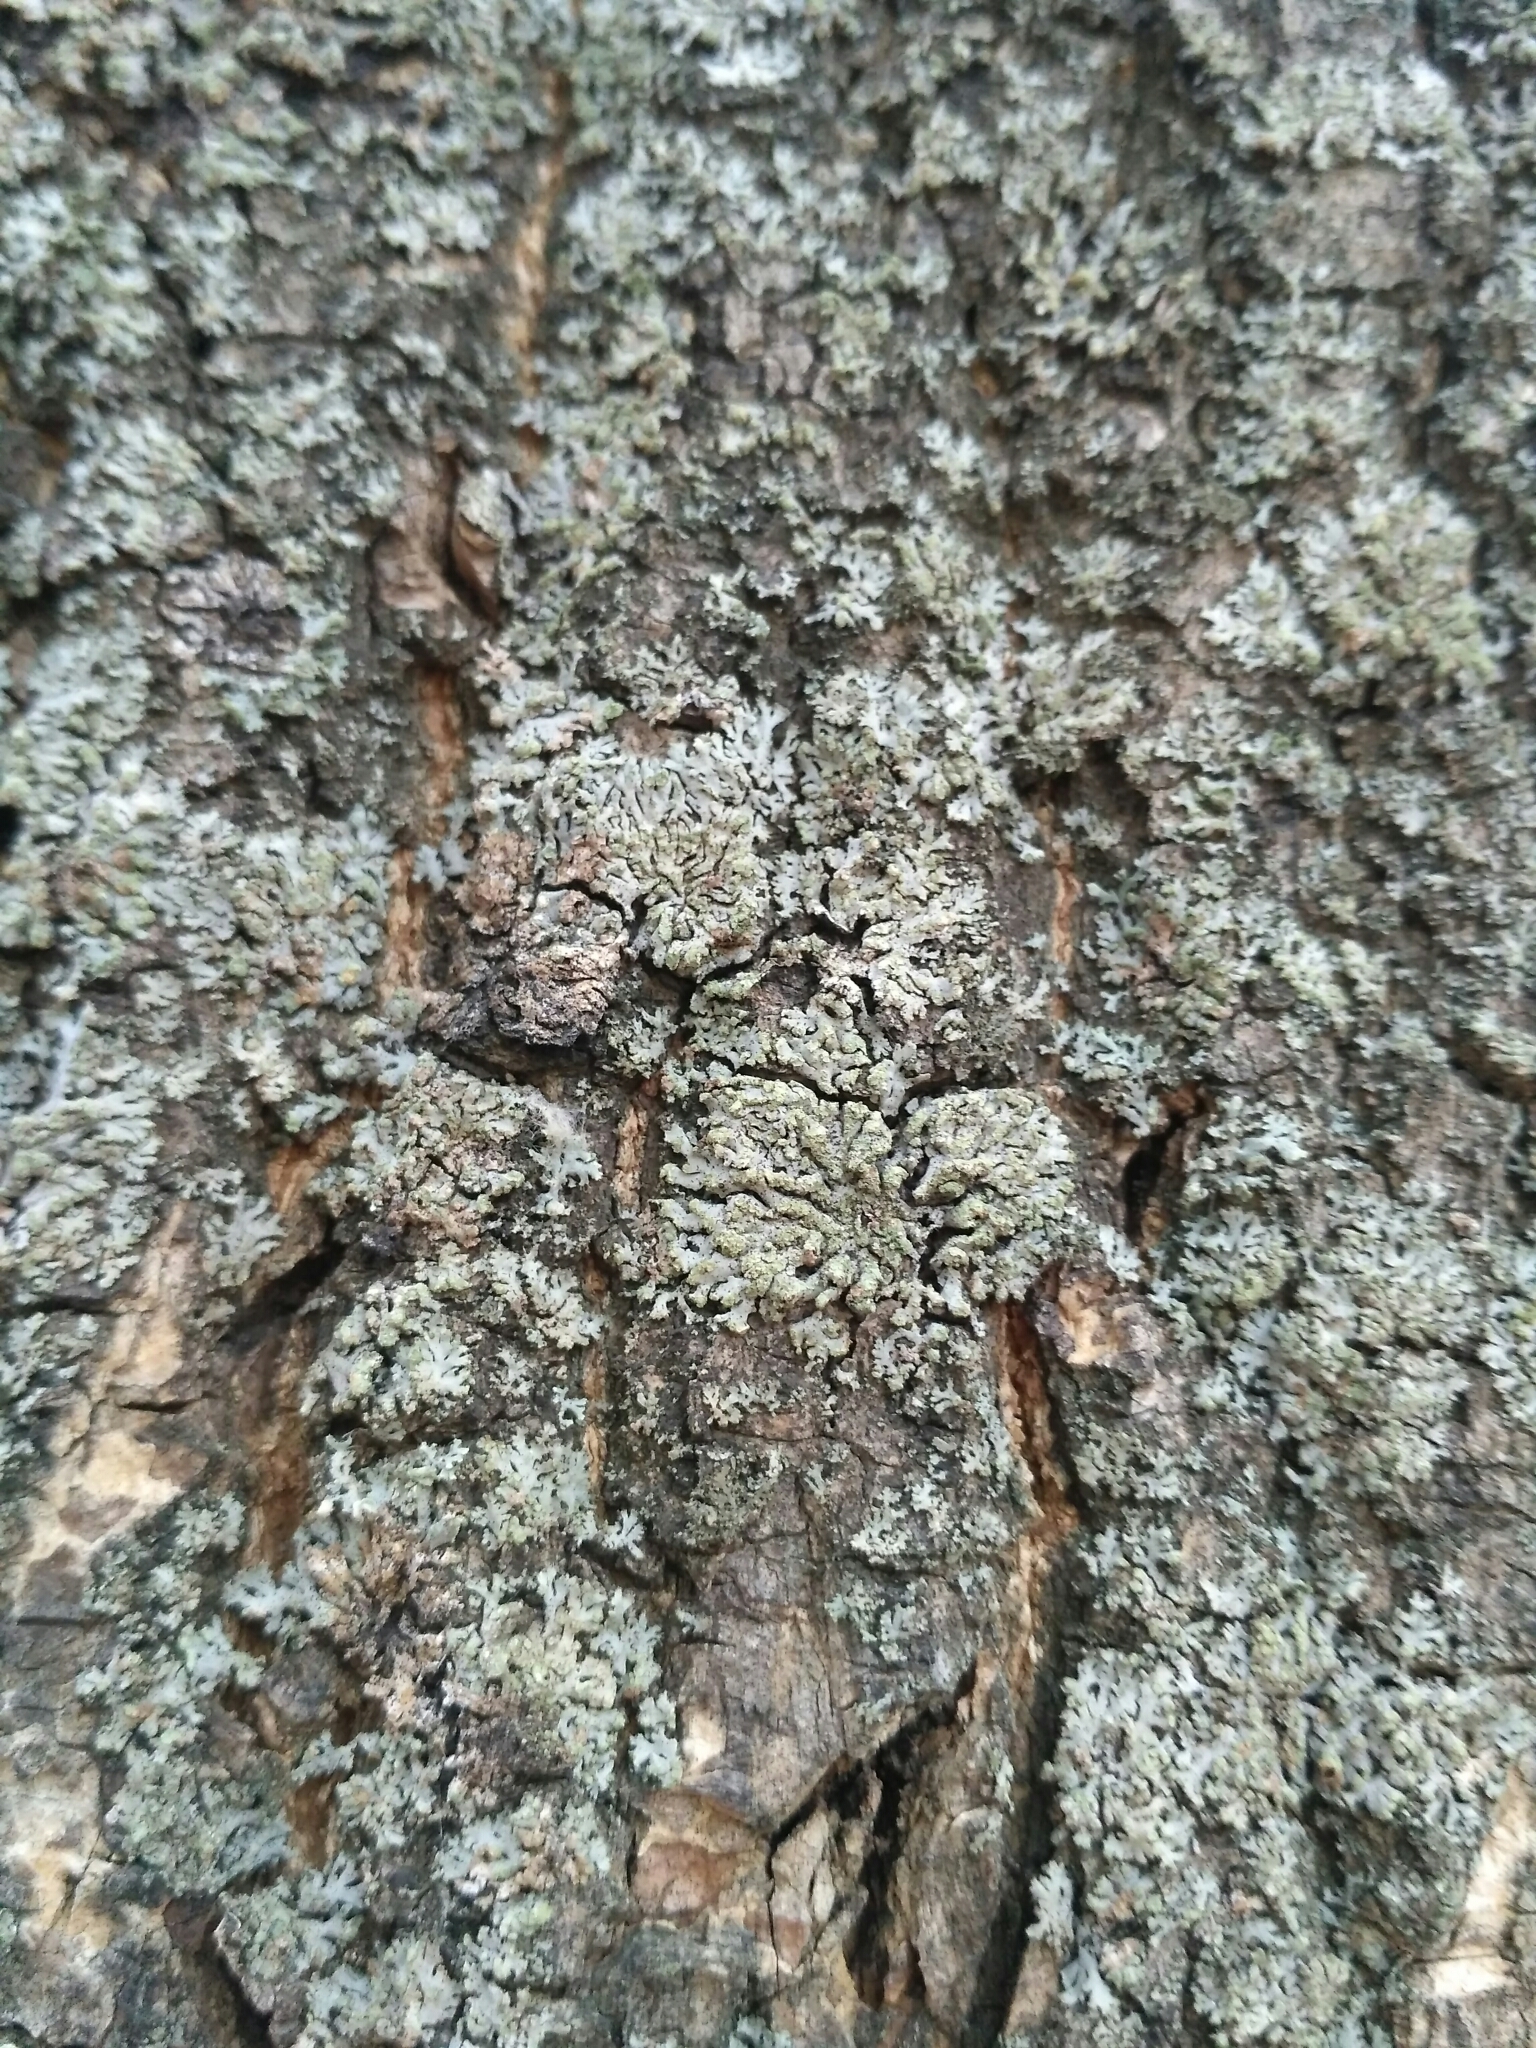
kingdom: Fungi
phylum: Ascomycota
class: Lecanoromycetes
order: Caliciales
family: Physciaceae
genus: Phaeophyscia
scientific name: Phaeophyscia orbicularis
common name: Mealy shadow lichen
